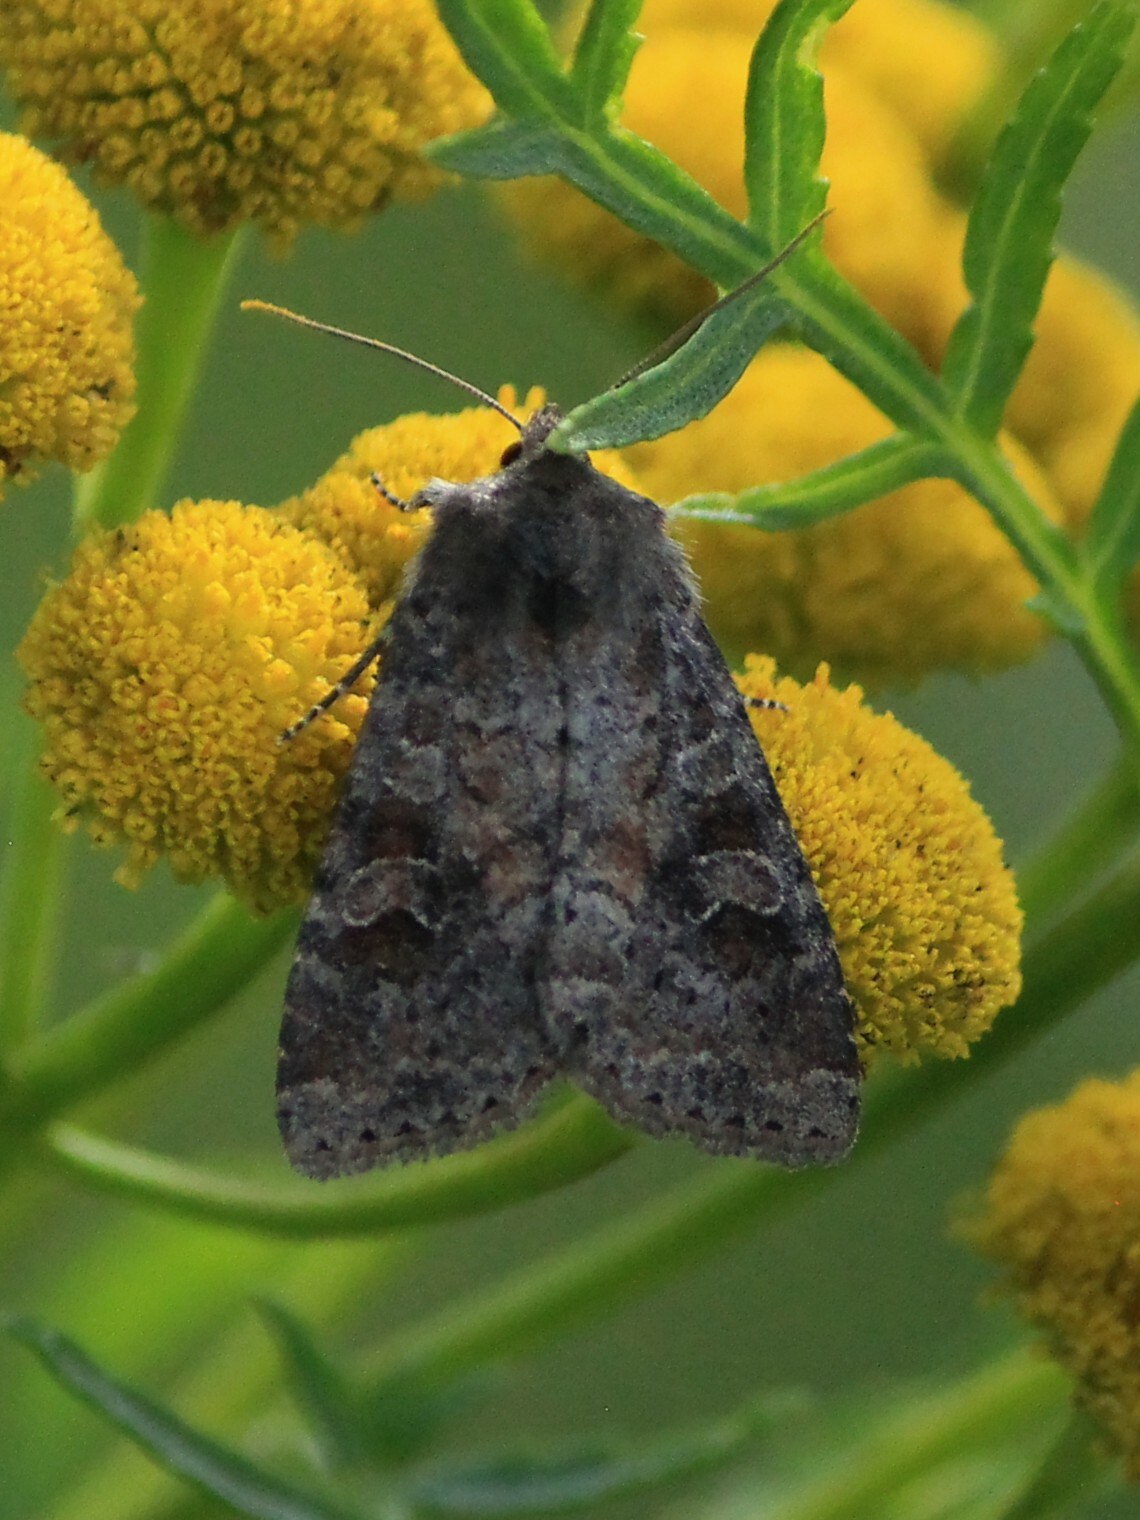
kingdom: Animalia
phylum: Arthropoda
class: Insecta
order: Lepidoptera
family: Noctuidae
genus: Parastichtis
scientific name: Parastichtis suspecta
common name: Suspected
